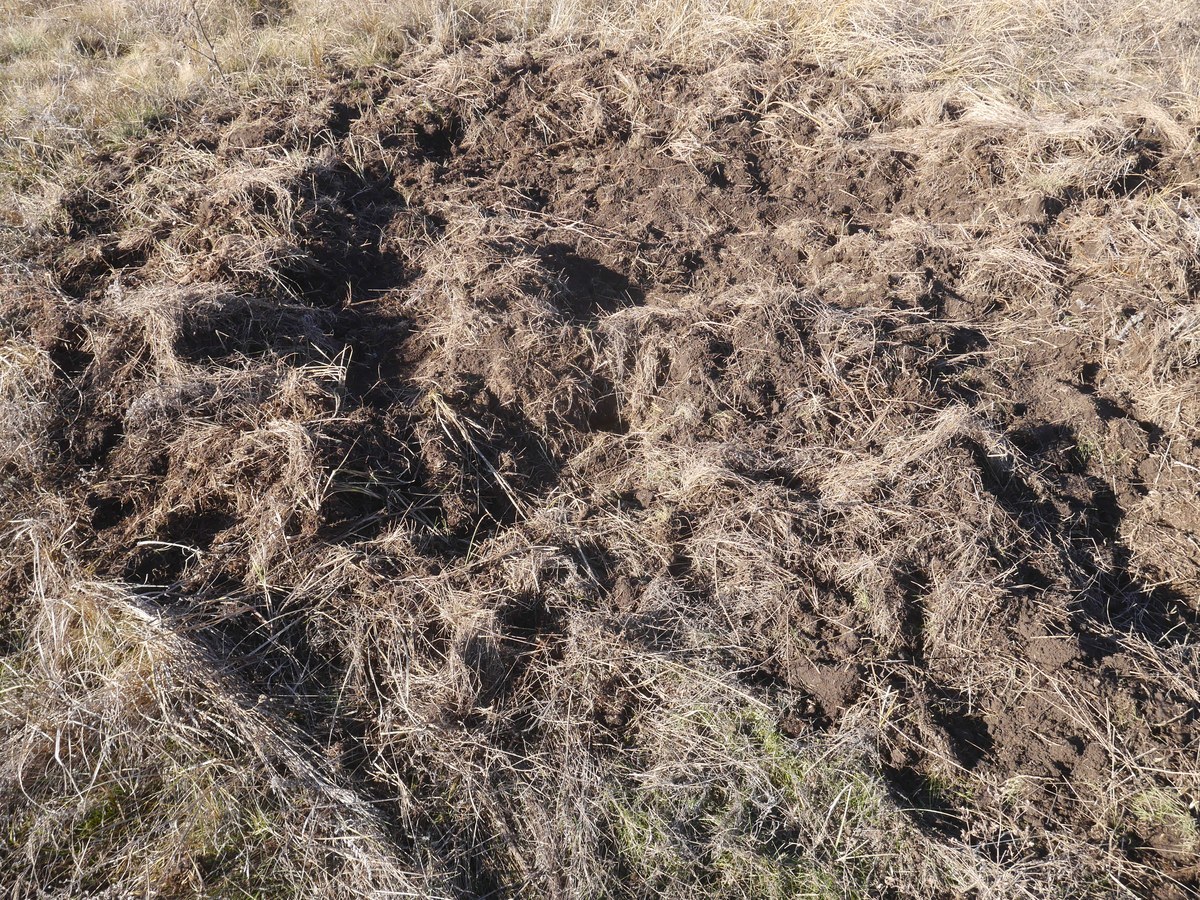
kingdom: Animalia
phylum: Chordata
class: Mammalia
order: Artiodactyla
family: Suidae
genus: Sus
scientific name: Sus scrofa
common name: Wild boar
